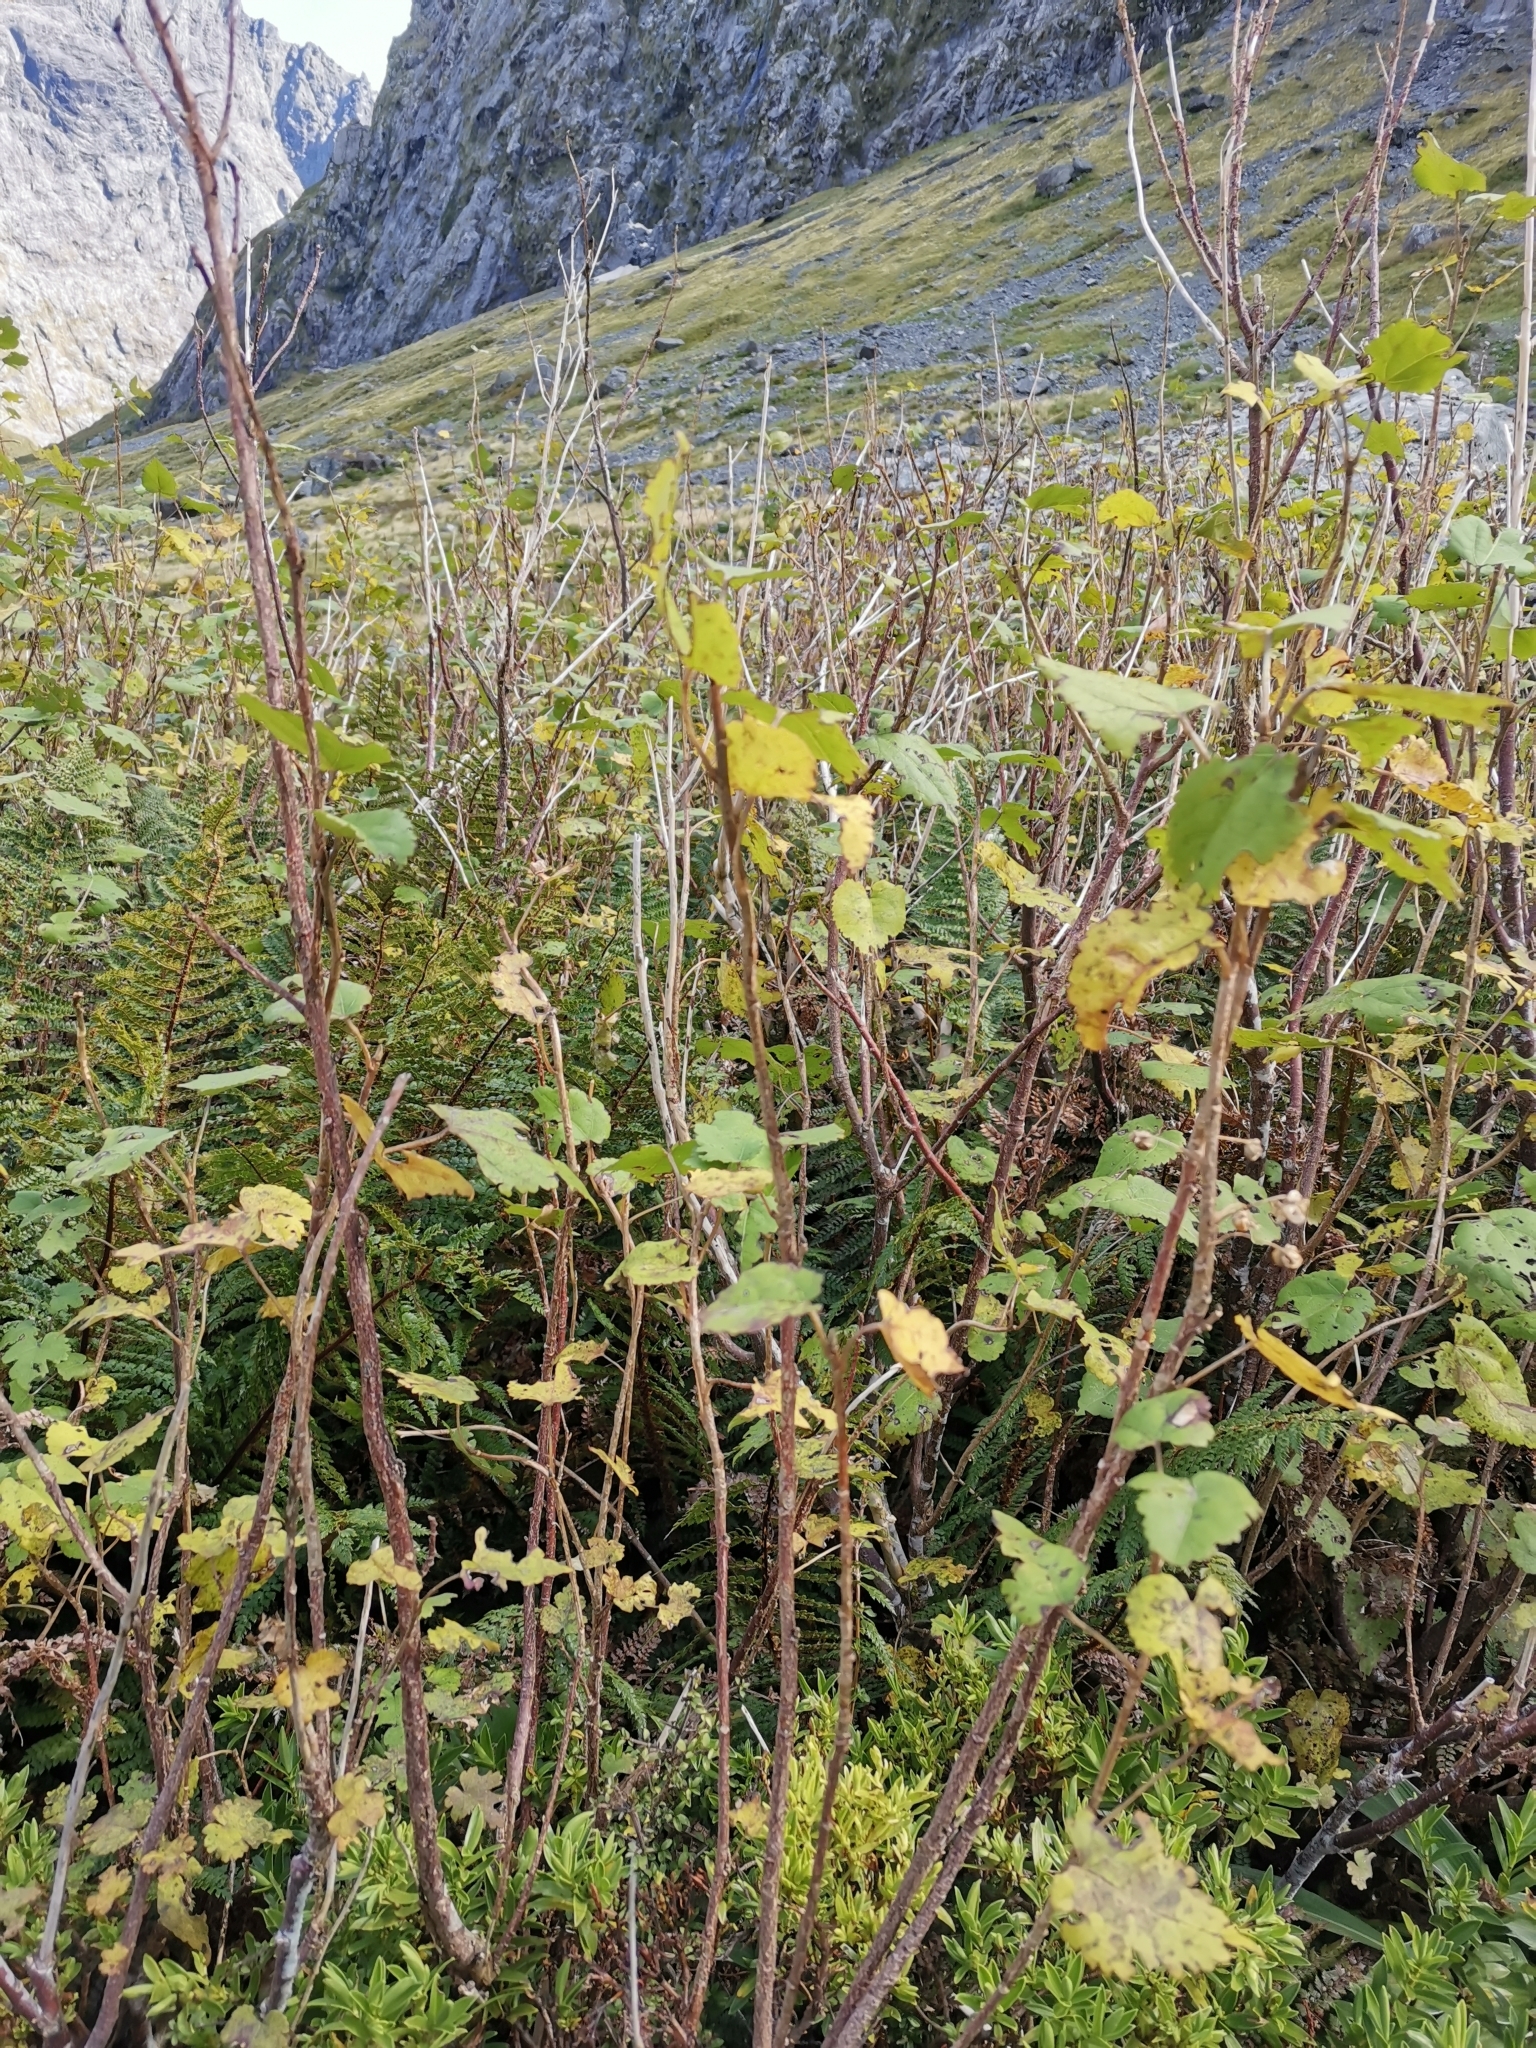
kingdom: Plantae
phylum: Tracheophyta
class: Magnoliopsida
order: Malvales
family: Malvaceae
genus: Hoheria
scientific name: Hoheria glabrata
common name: Mountain-ribbon
